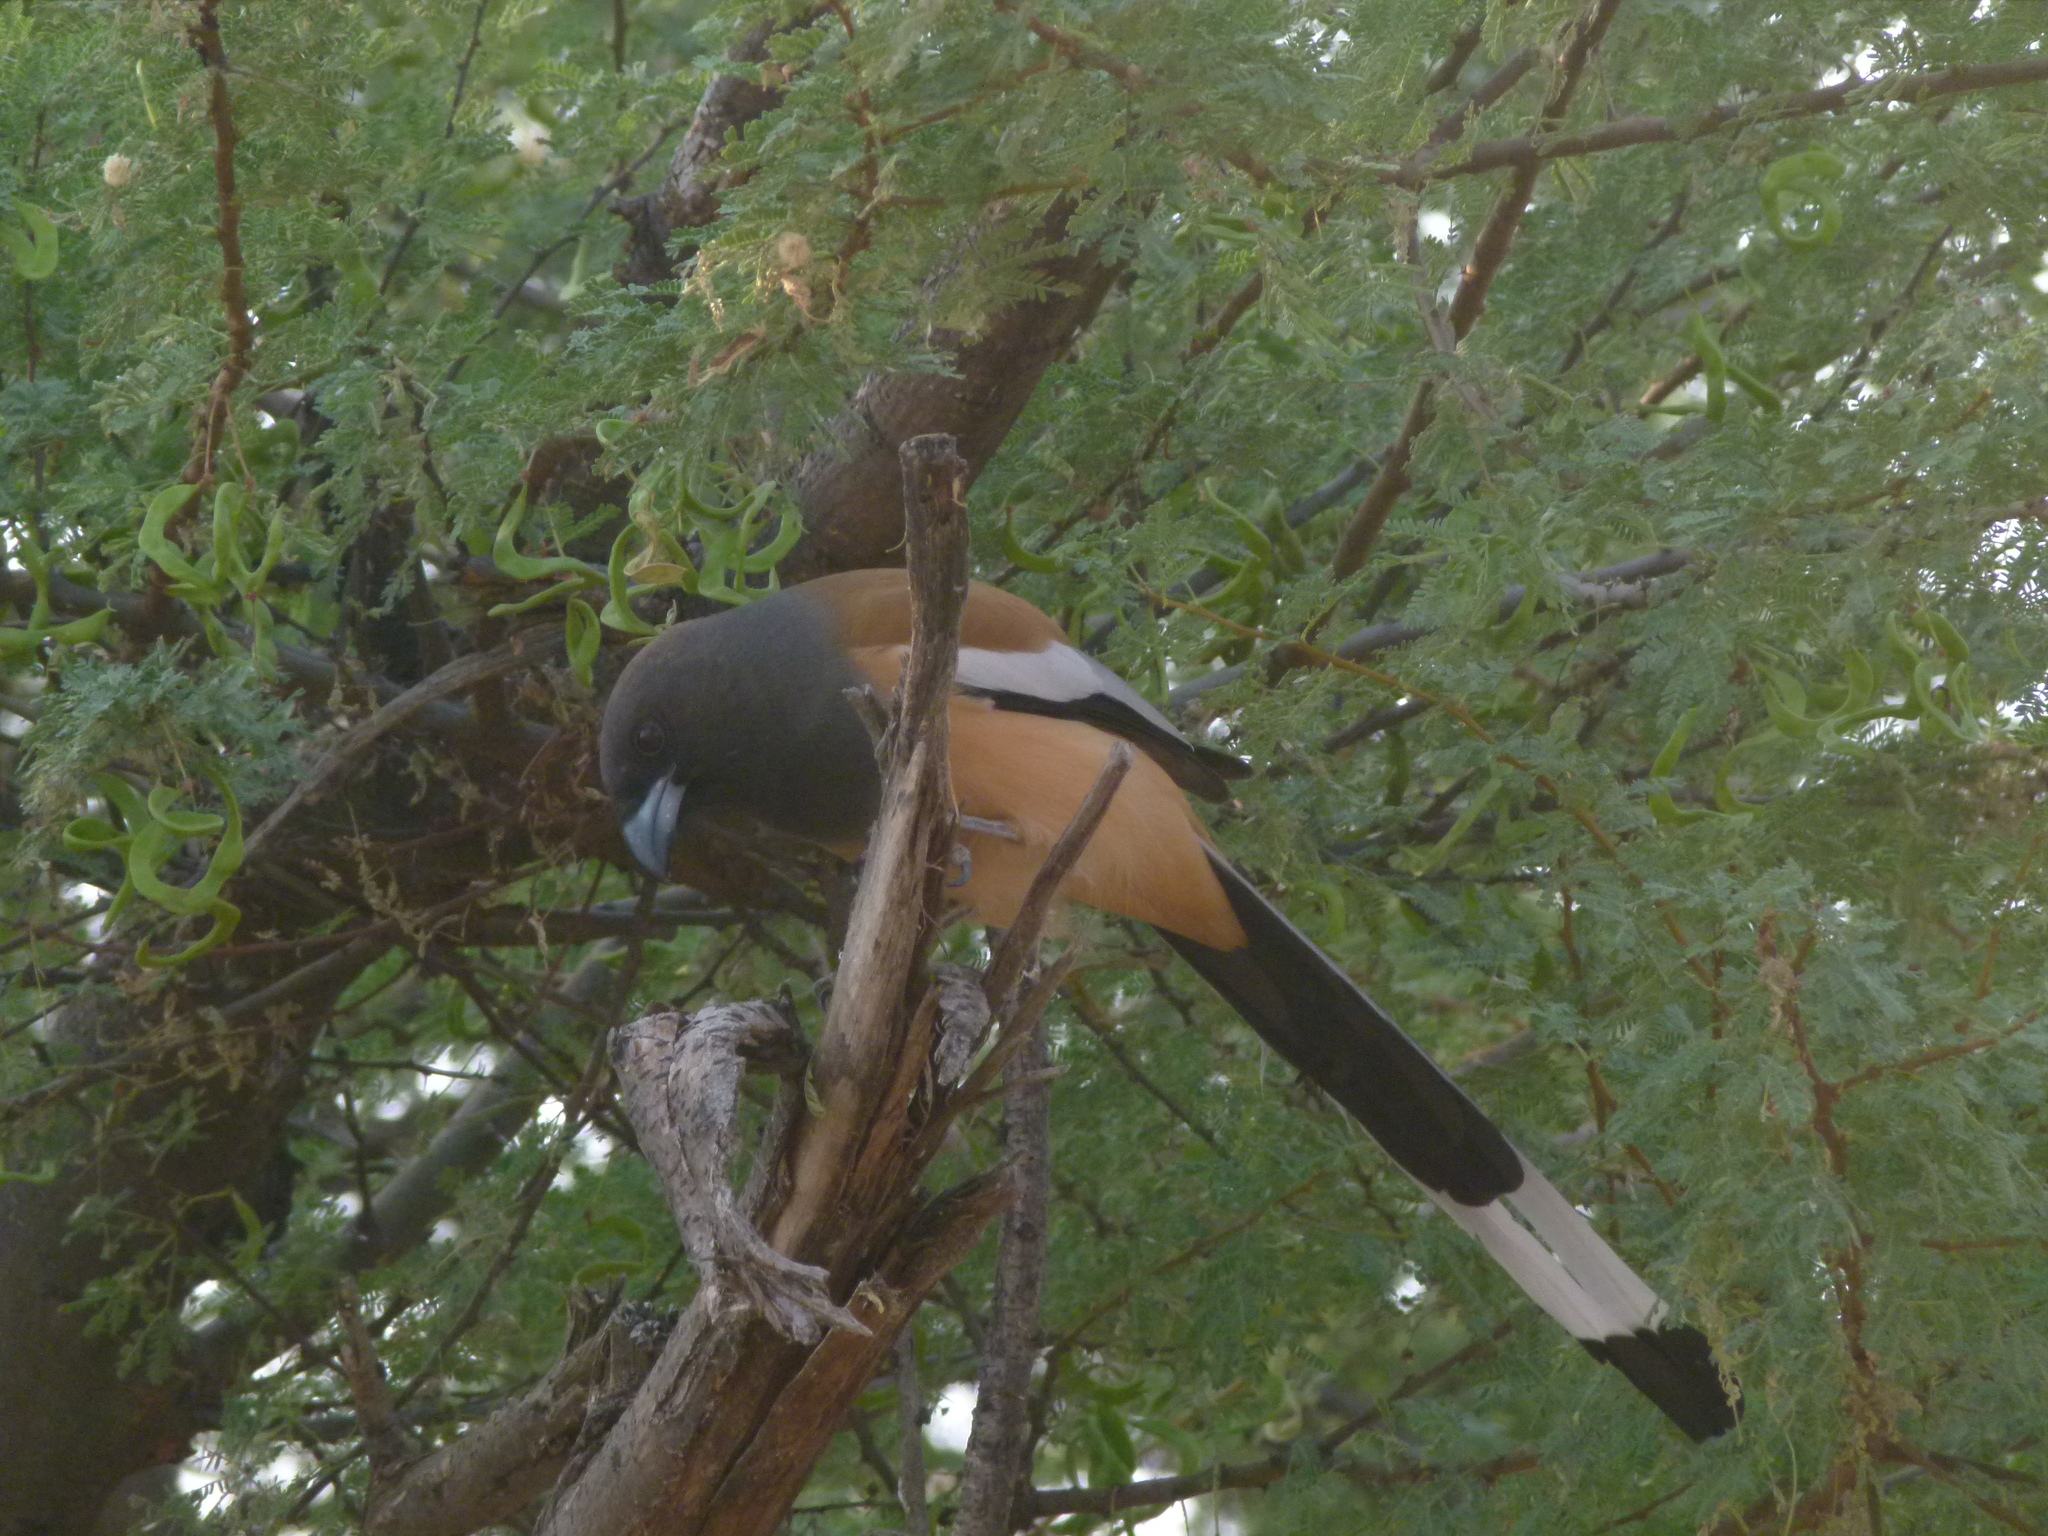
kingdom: Animalia
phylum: Chordata
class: Aves
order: Passeriformes
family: Corvidae
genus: Dendrocitta
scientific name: Dendrocitta vagabunda
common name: Rufous treepie
